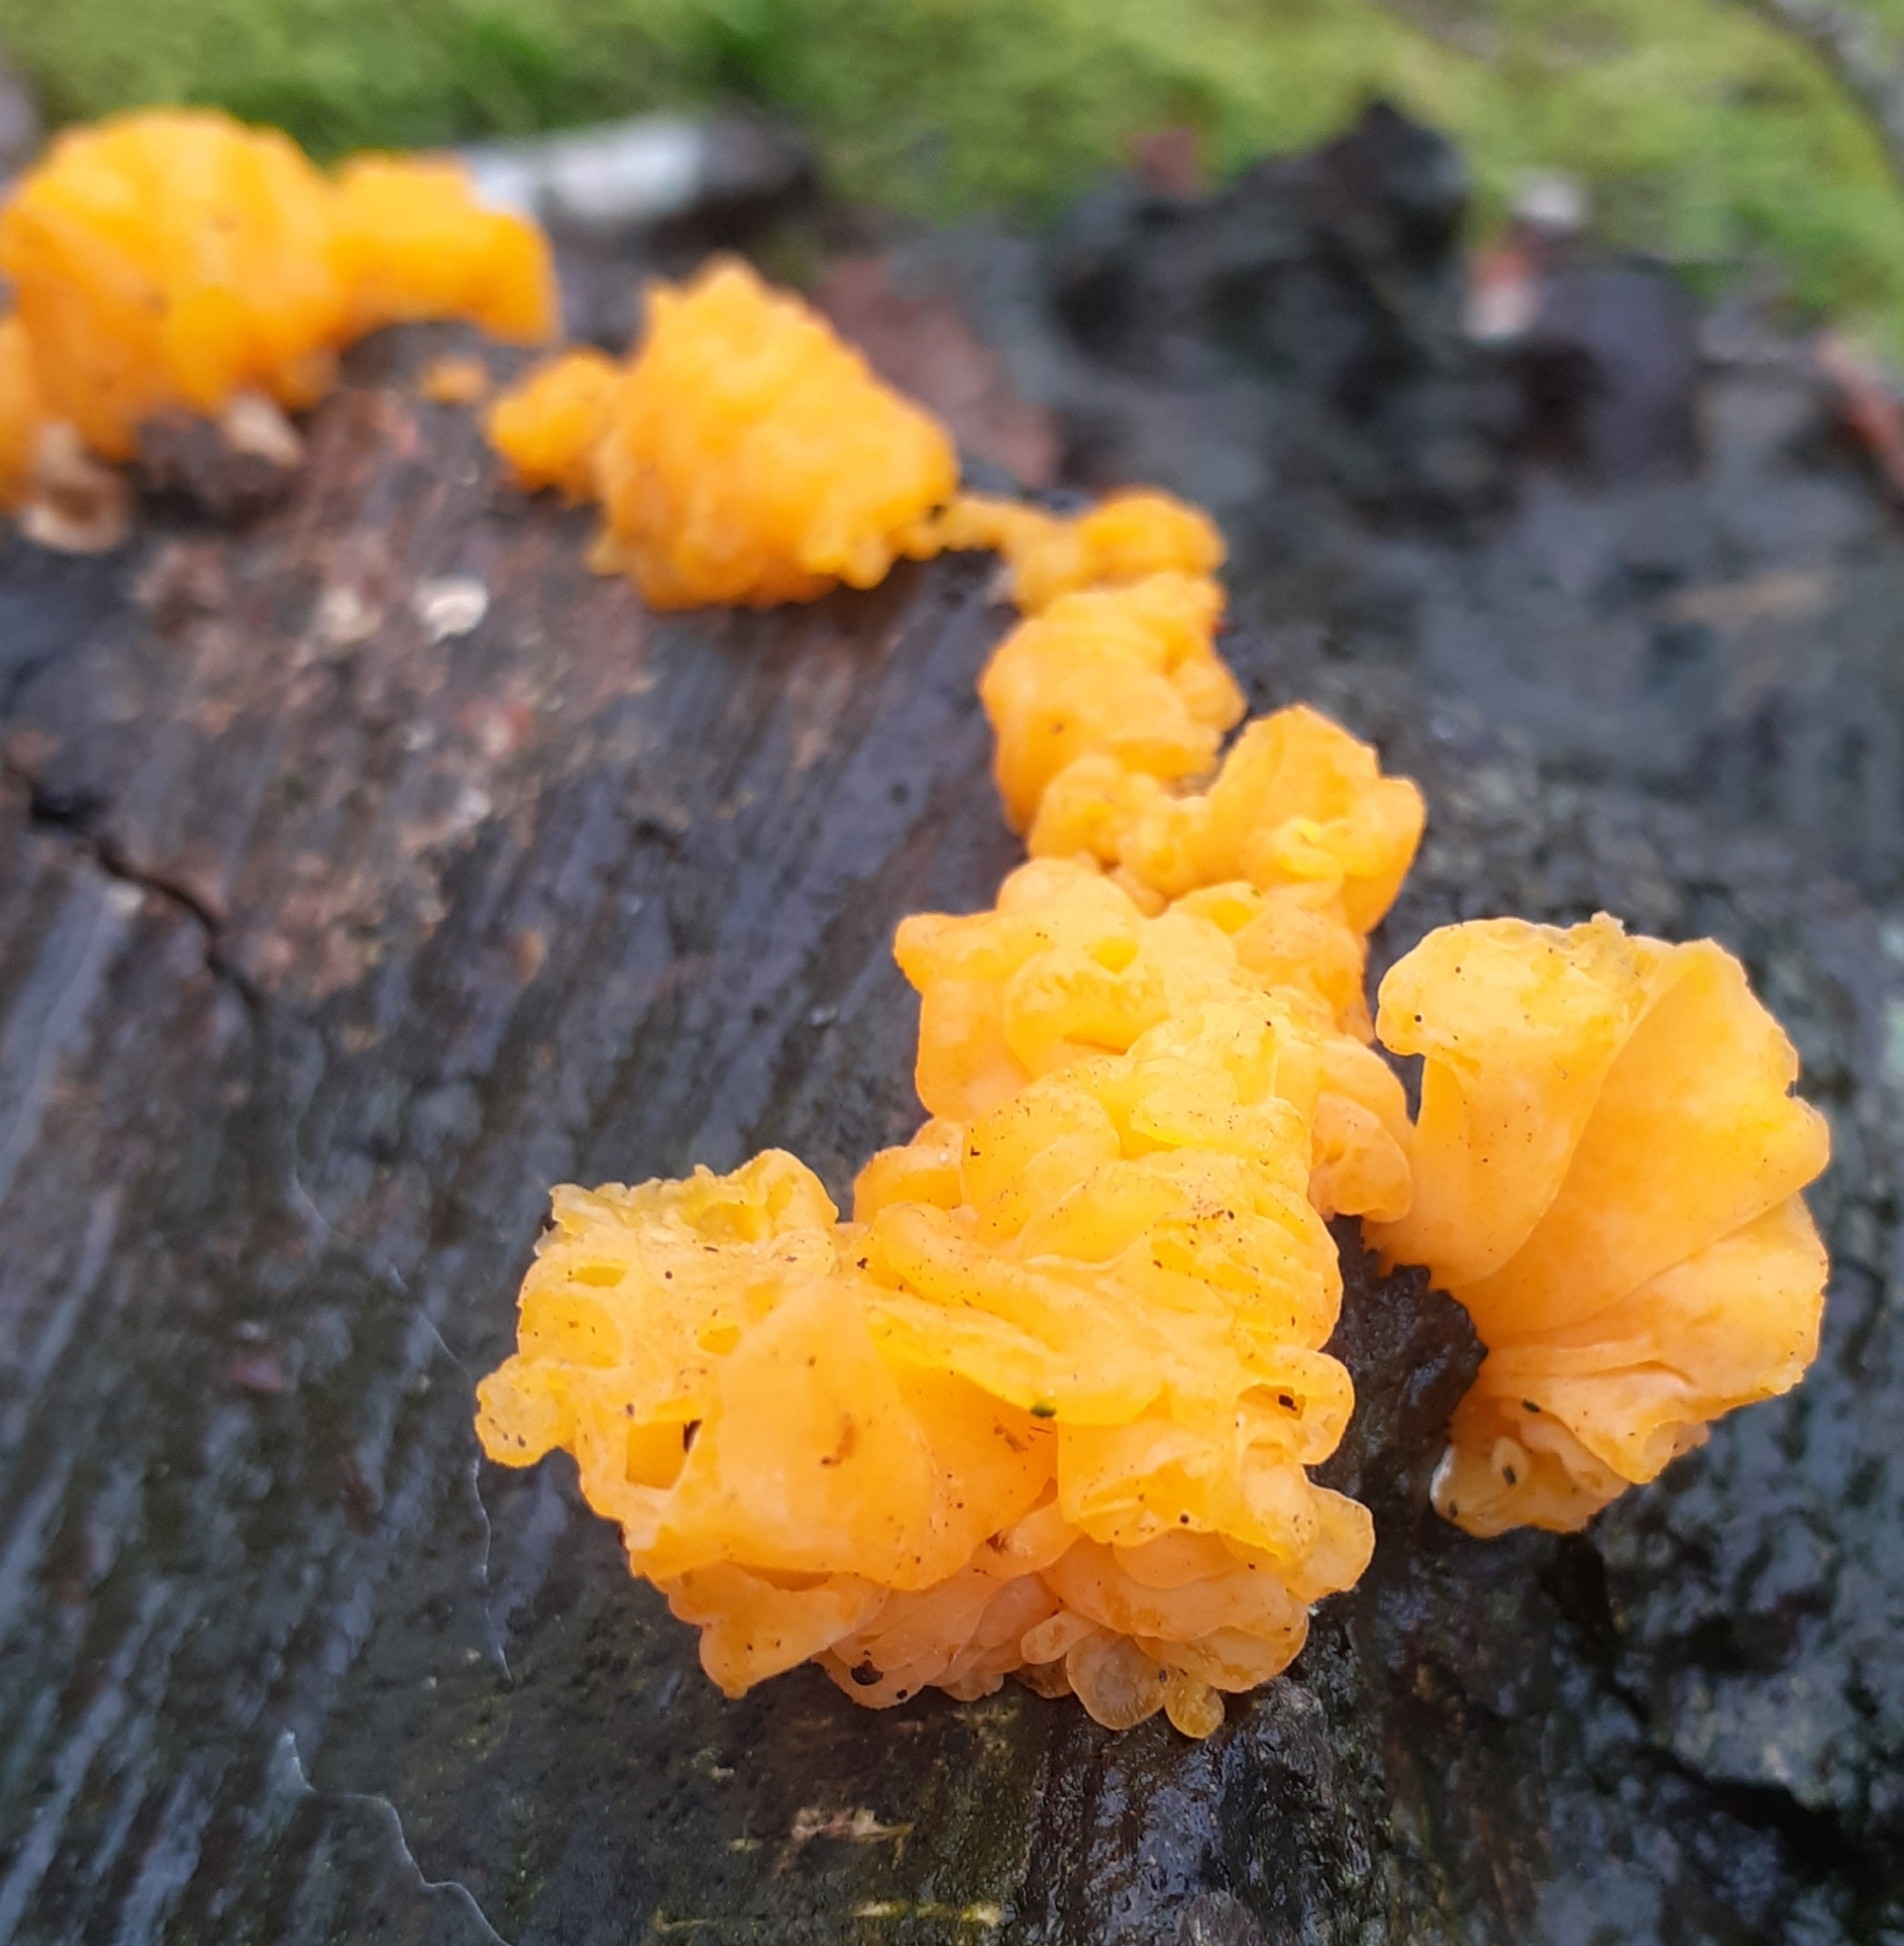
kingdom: Fungi
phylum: Basidiomycota
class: Tremellomycetes
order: Tremellales
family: Naemateliaceae
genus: Naematelia
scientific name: Naematelia aurantia
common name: Golden ear
